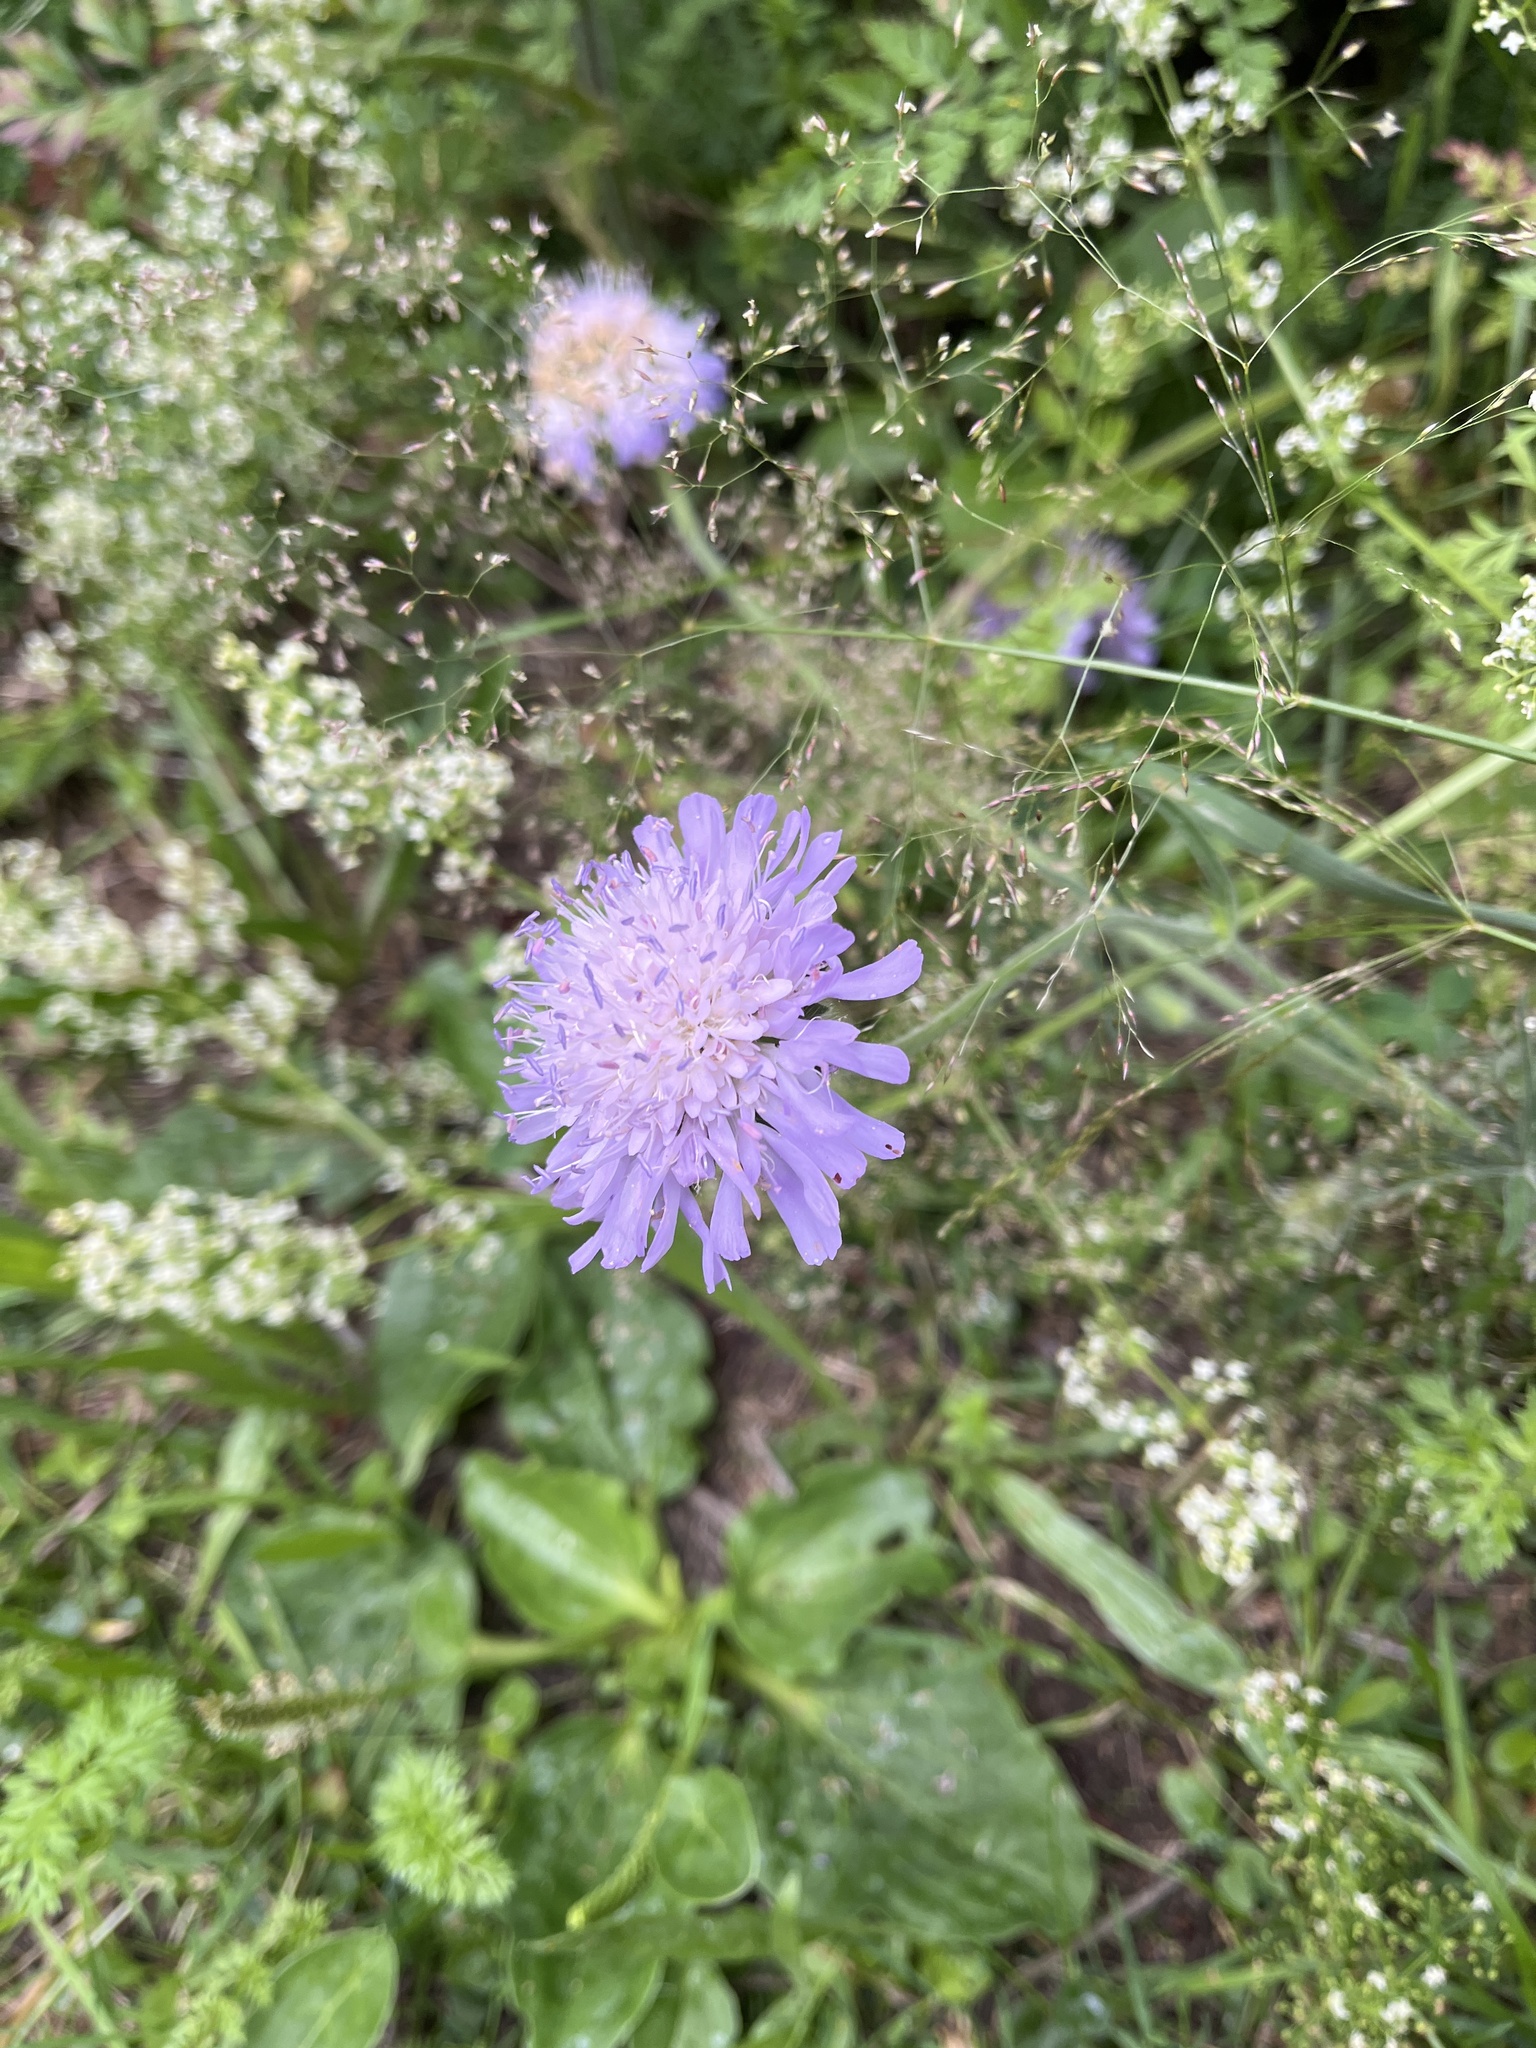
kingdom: Plantae
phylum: Tracheophyta
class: Magnoliopsida
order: Dipsacales
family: Caprifoliaceae
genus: Knautia
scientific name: Knautia arvensis
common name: Field scabiosa
